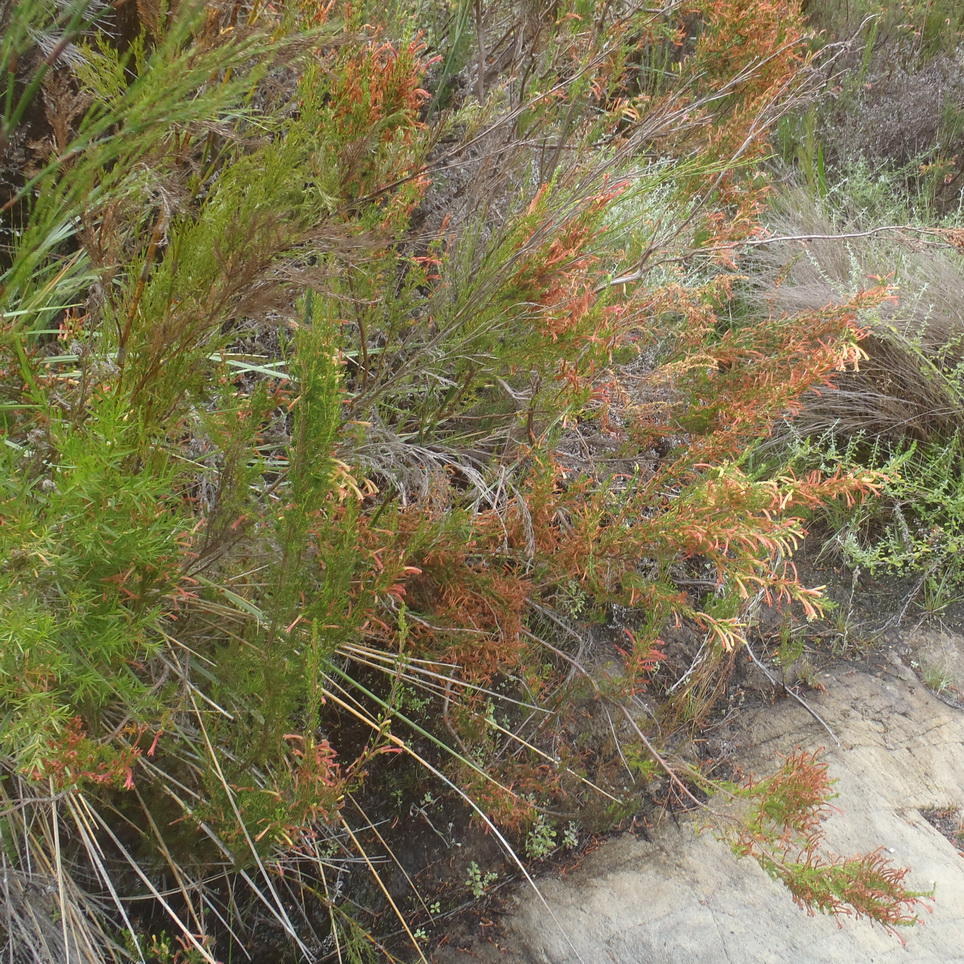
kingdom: Plantae
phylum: Tracheophyta
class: Magnoliopsida
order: Ericales
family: Ericaceae
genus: Erica
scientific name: Erica curviflora
